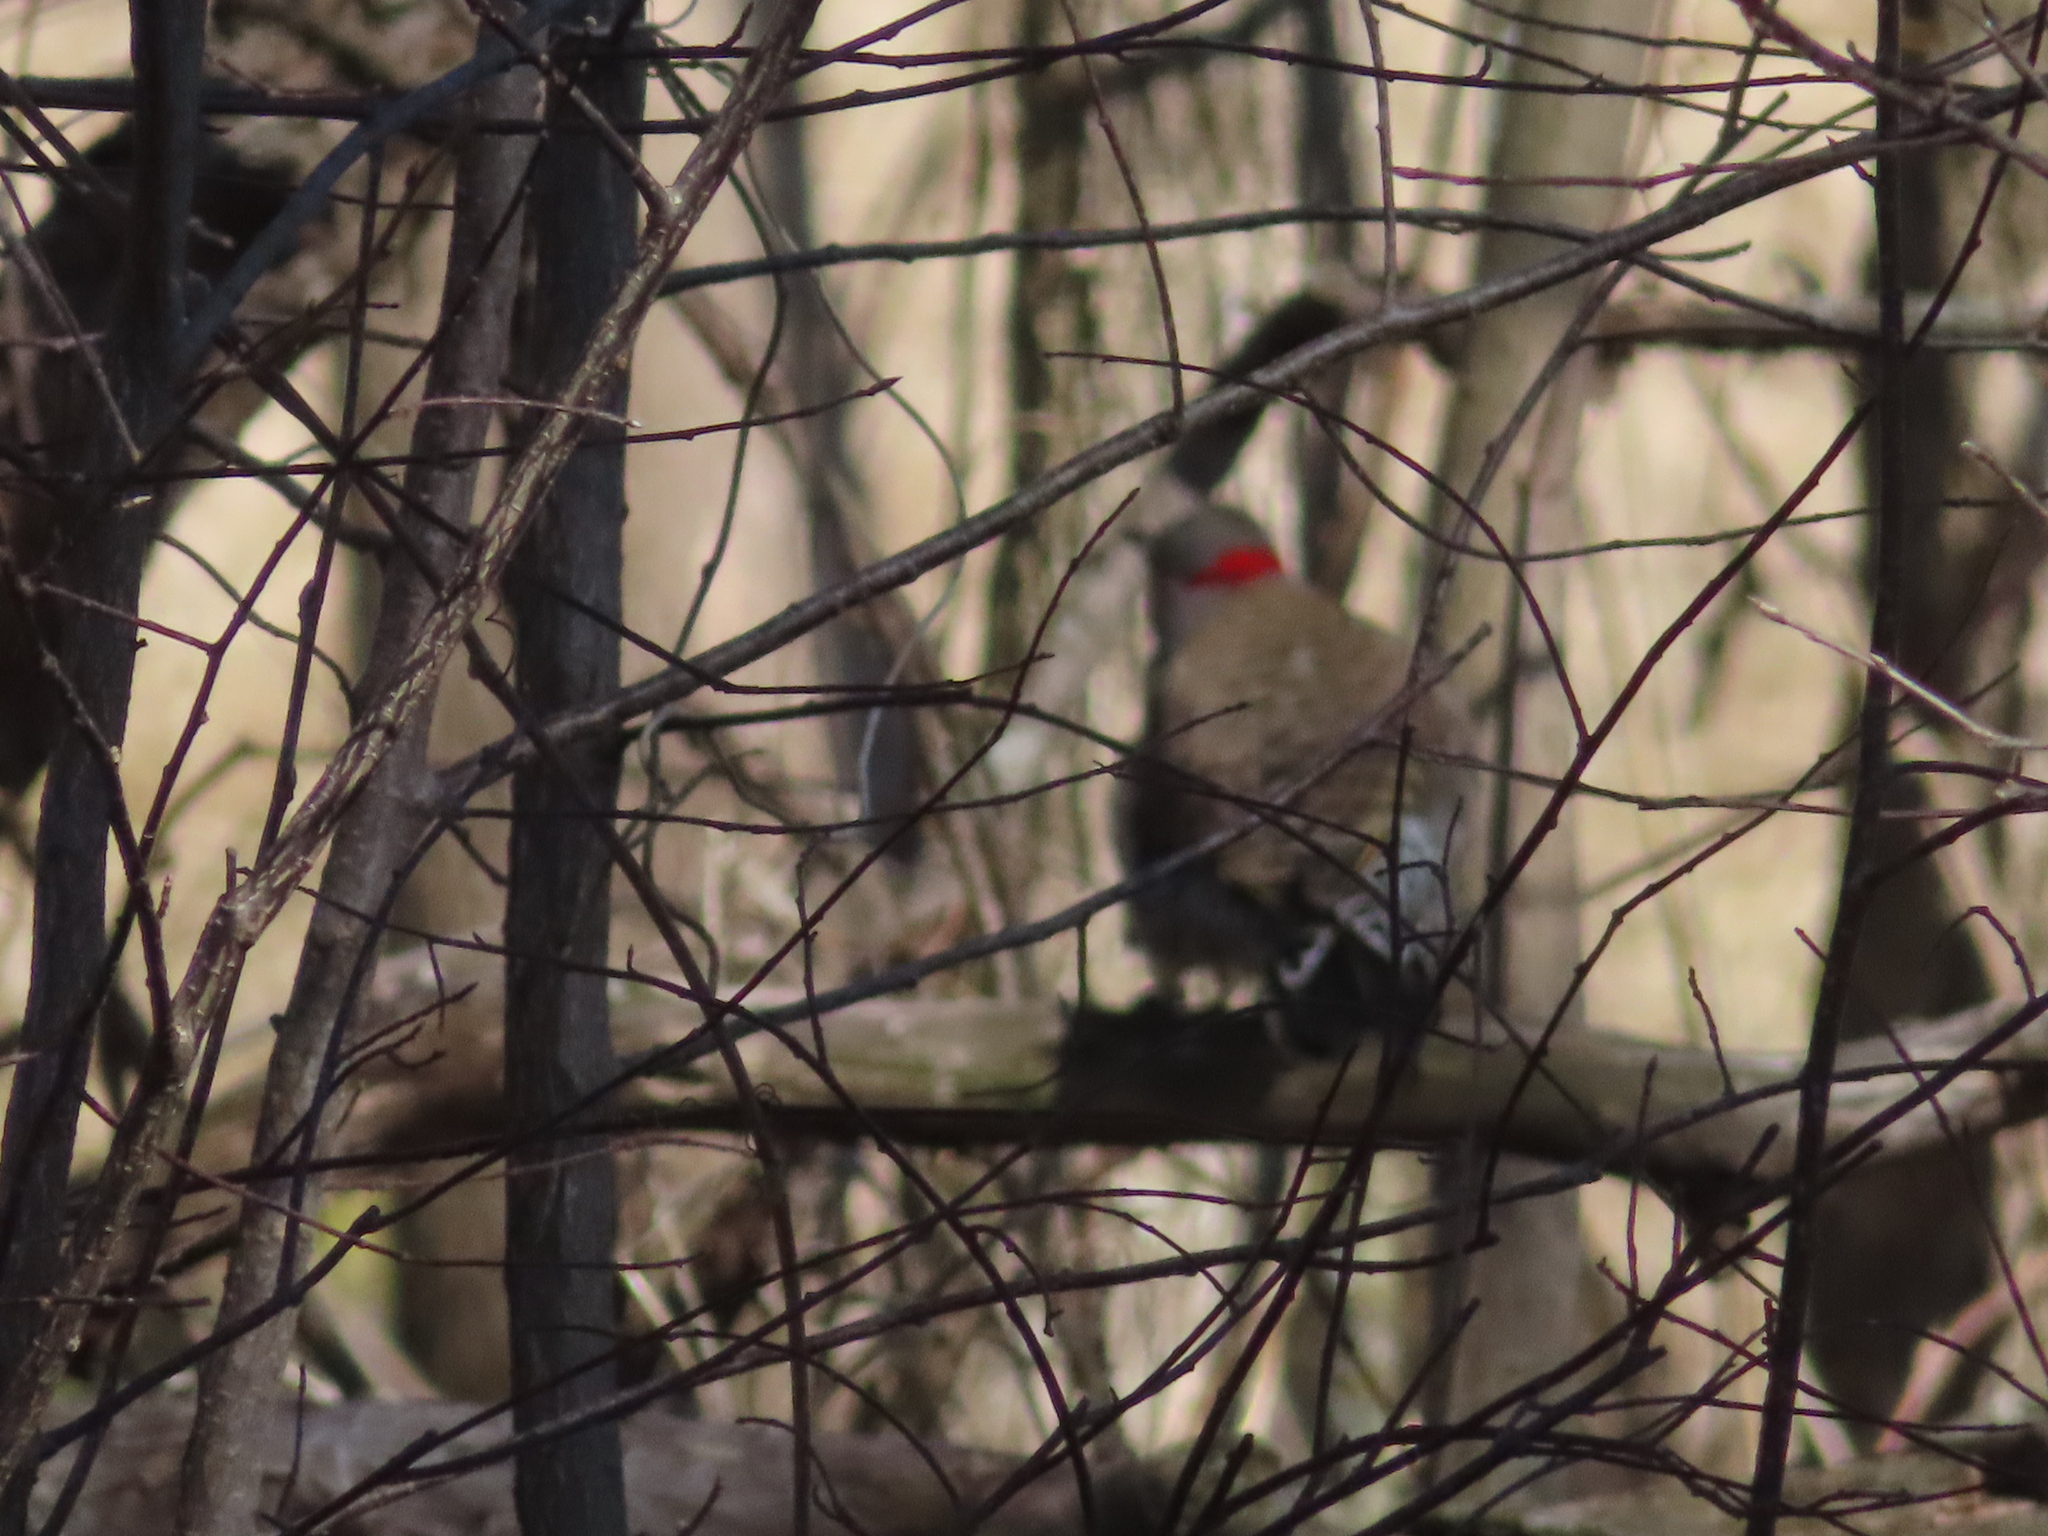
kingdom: Animalia
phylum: Chordata
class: Aves
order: Piciformes
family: Picidae
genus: Colaptes
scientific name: Colaptes auratus
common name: Northern flicker
